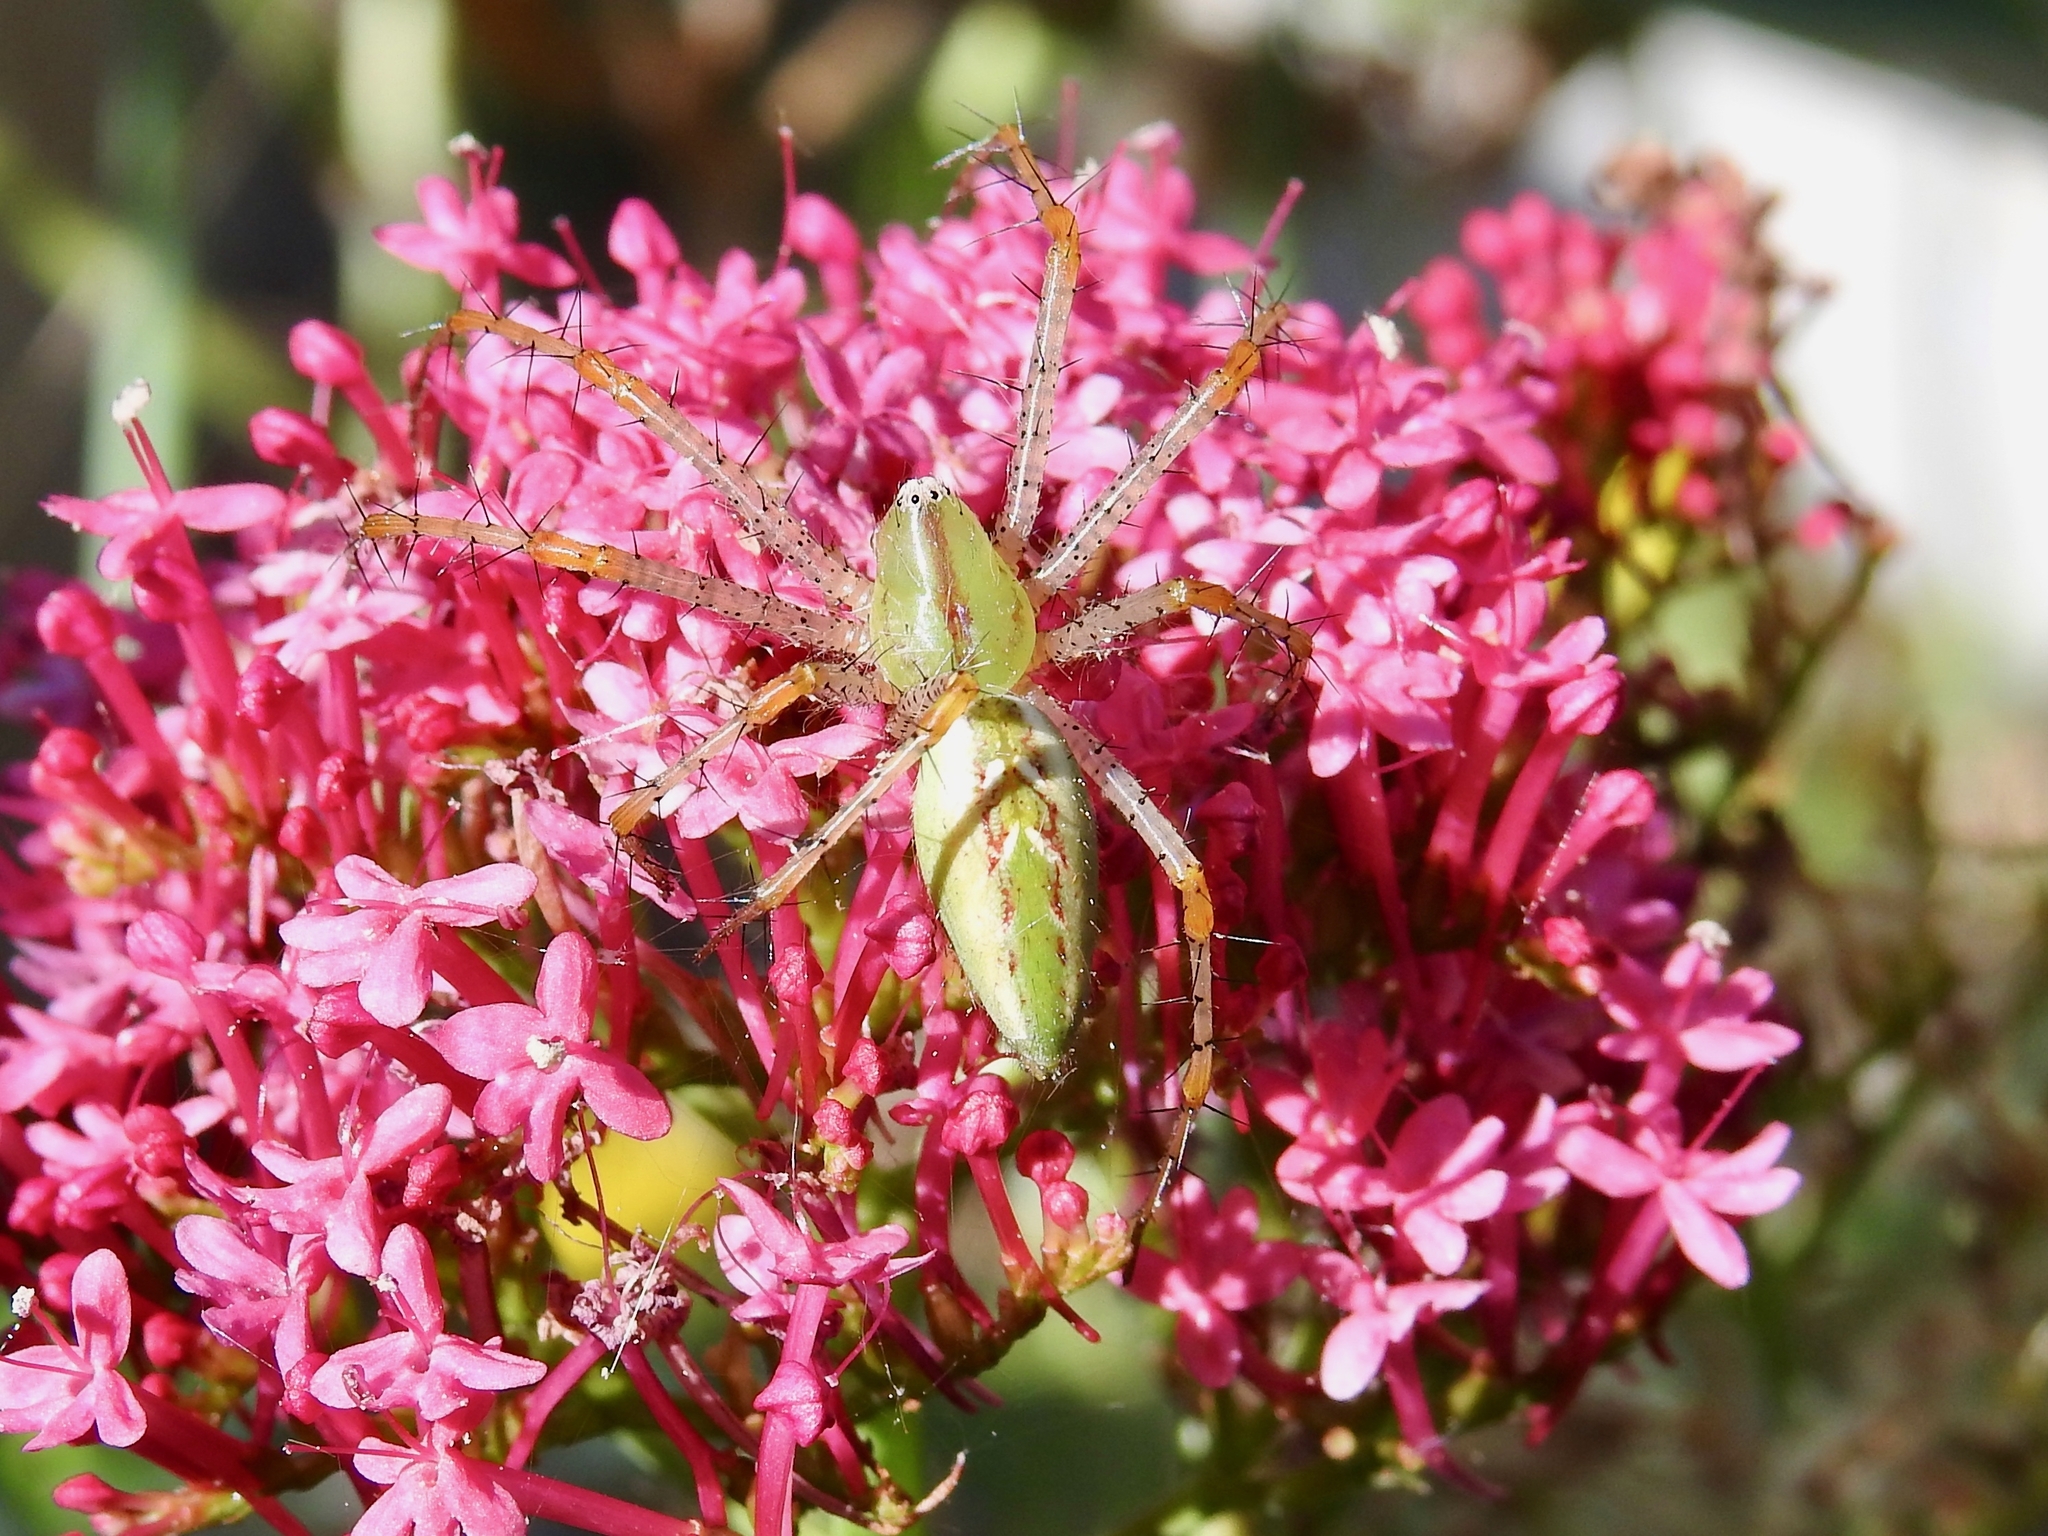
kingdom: Animalia
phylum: Arthropoda
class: Arachnida
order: Araneae
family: Oxyopidae
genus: Peucetia
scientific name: Peucetia viridans
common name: Lynx spiders
